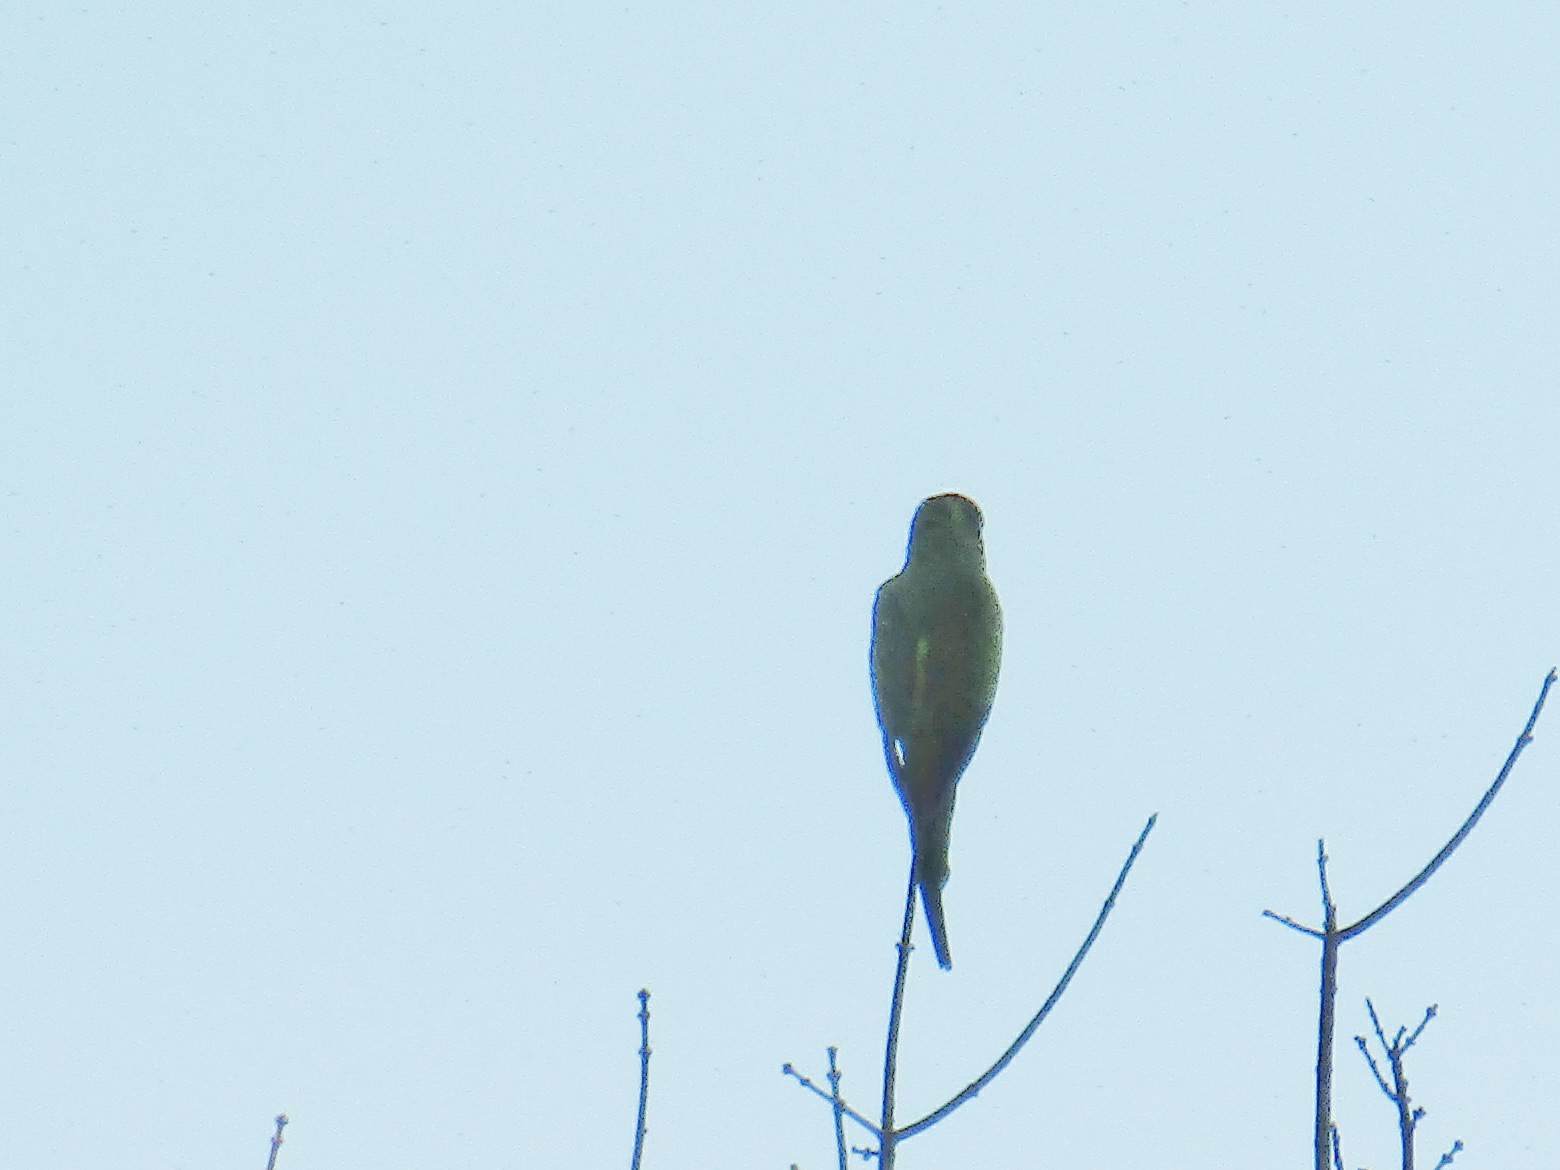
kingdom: Animalia
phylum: Chordata
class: Aves
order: Psittaciformes
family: Psittacidae
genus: Nandayus
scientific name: Nandayus nenday
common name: Nanday parakeet
